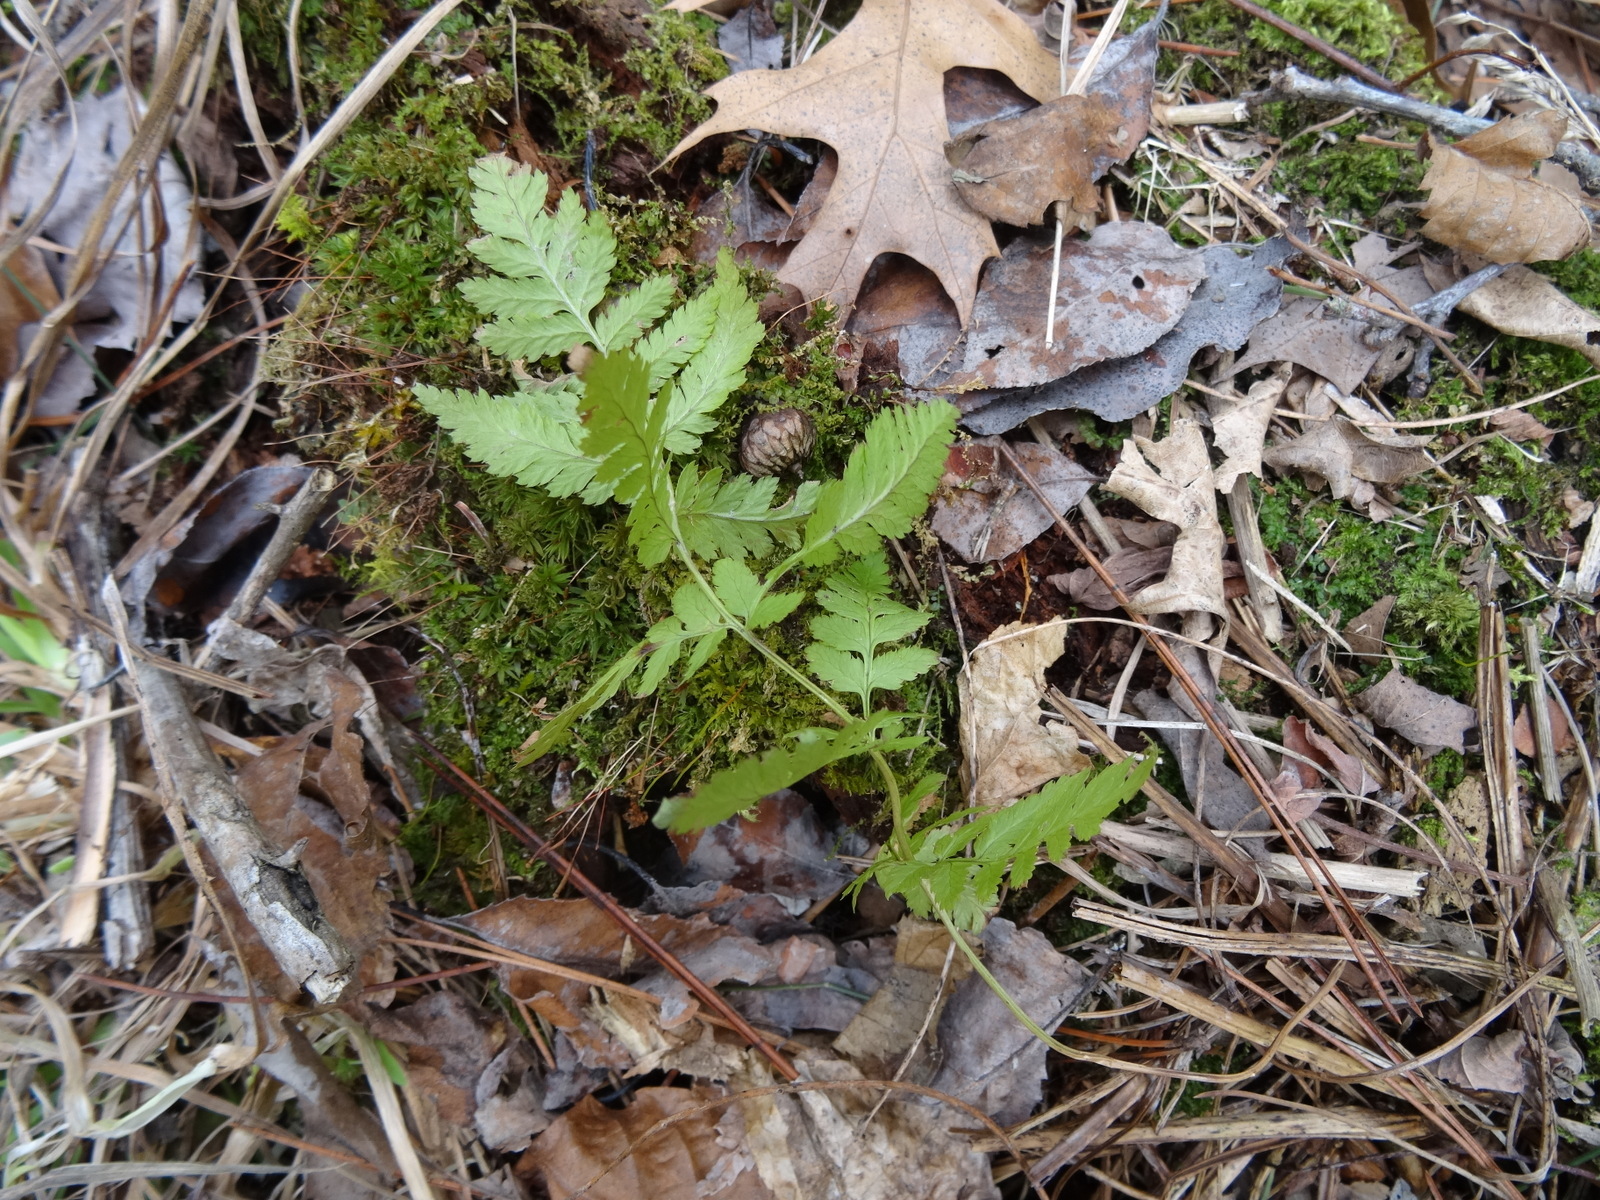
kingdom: Plantae
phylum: Tracheophyta
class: Polypodiopsida
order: Polypodiales
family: Dryopteridaceae
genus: Dryopteris
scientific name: Dryopteris intermedia
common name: Evergreen wood fern
